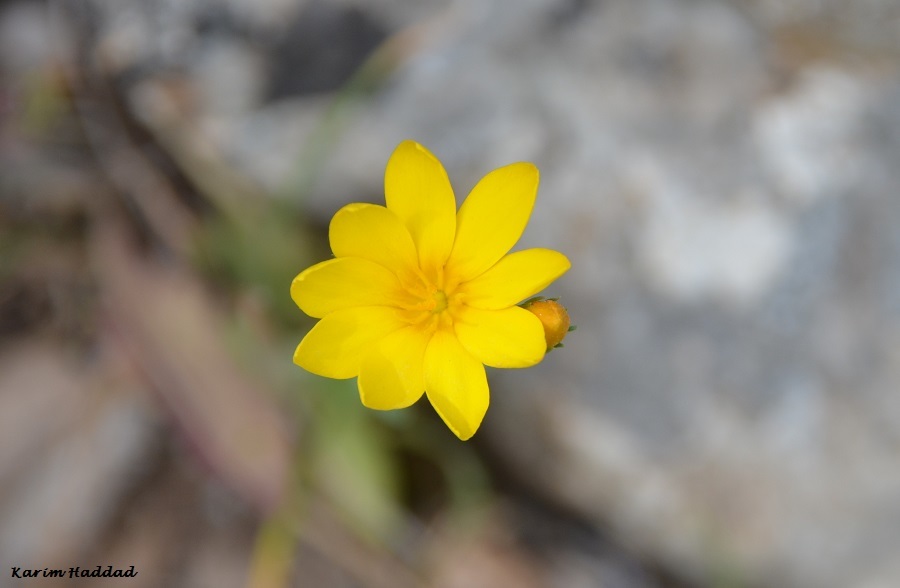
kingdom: Plantae
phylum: Tracheophyta
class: Magnoliopsida
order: Gentianales
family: Gentianaceae
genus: Blackstonia
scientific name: Blackstonia grandiflora
